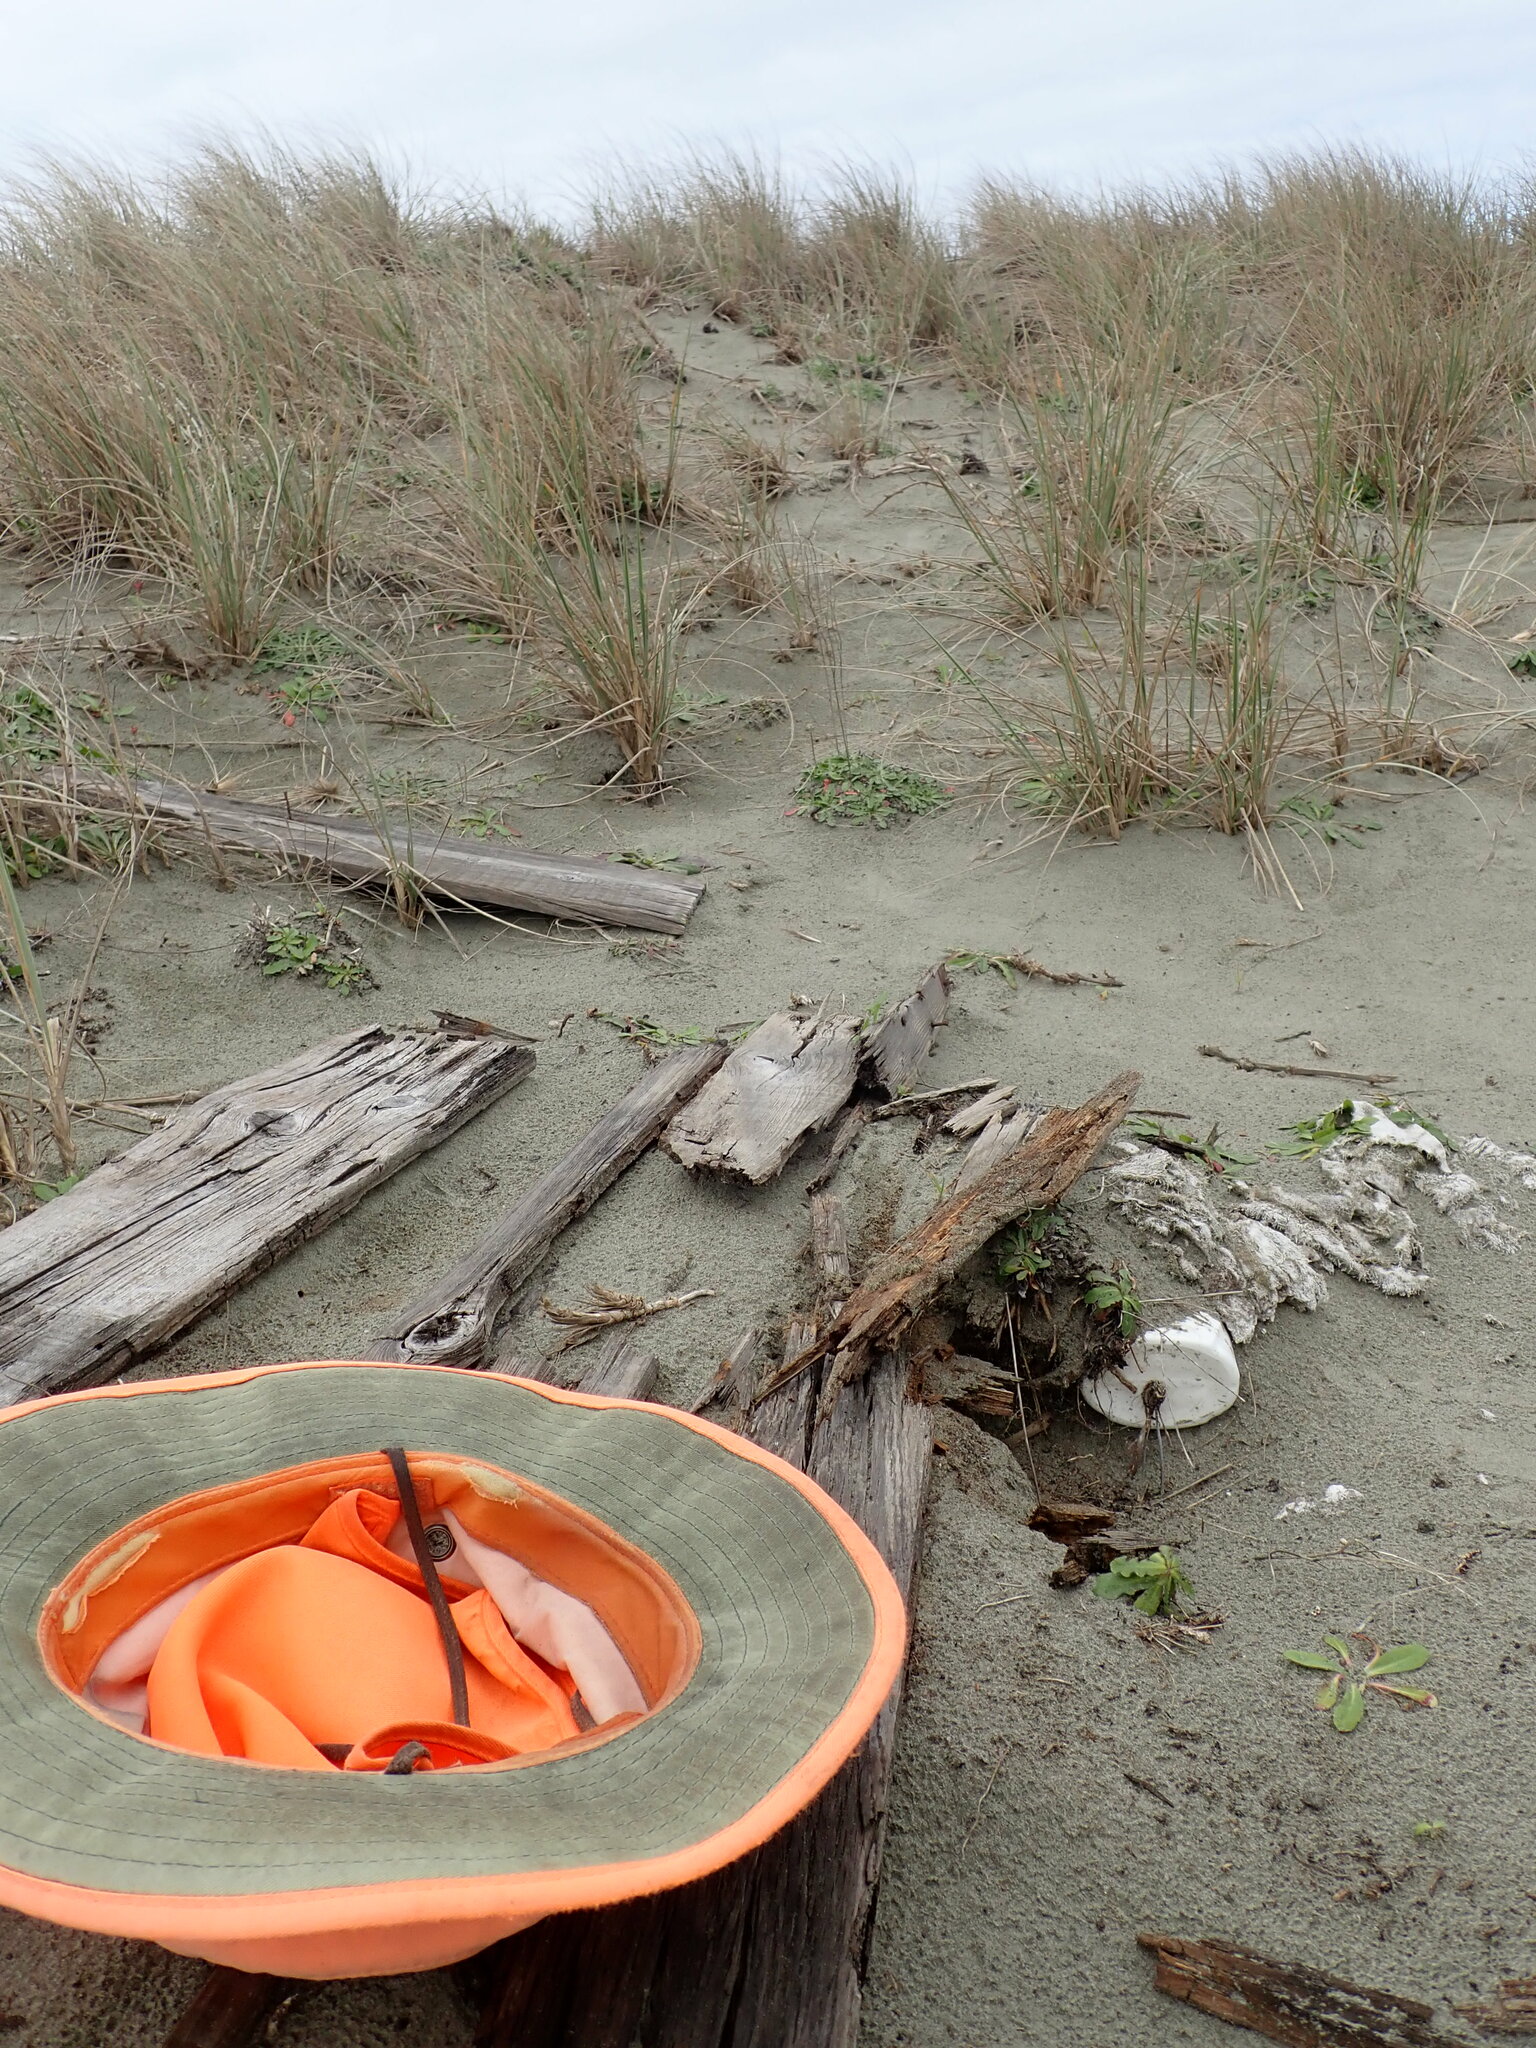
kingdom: Animalia
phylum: Arthropoda
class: Insecta
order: Coleoptera
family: Carabidae
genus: Harpalus
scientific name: Harpalus affinis
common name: Polychrome harp ground beetle
